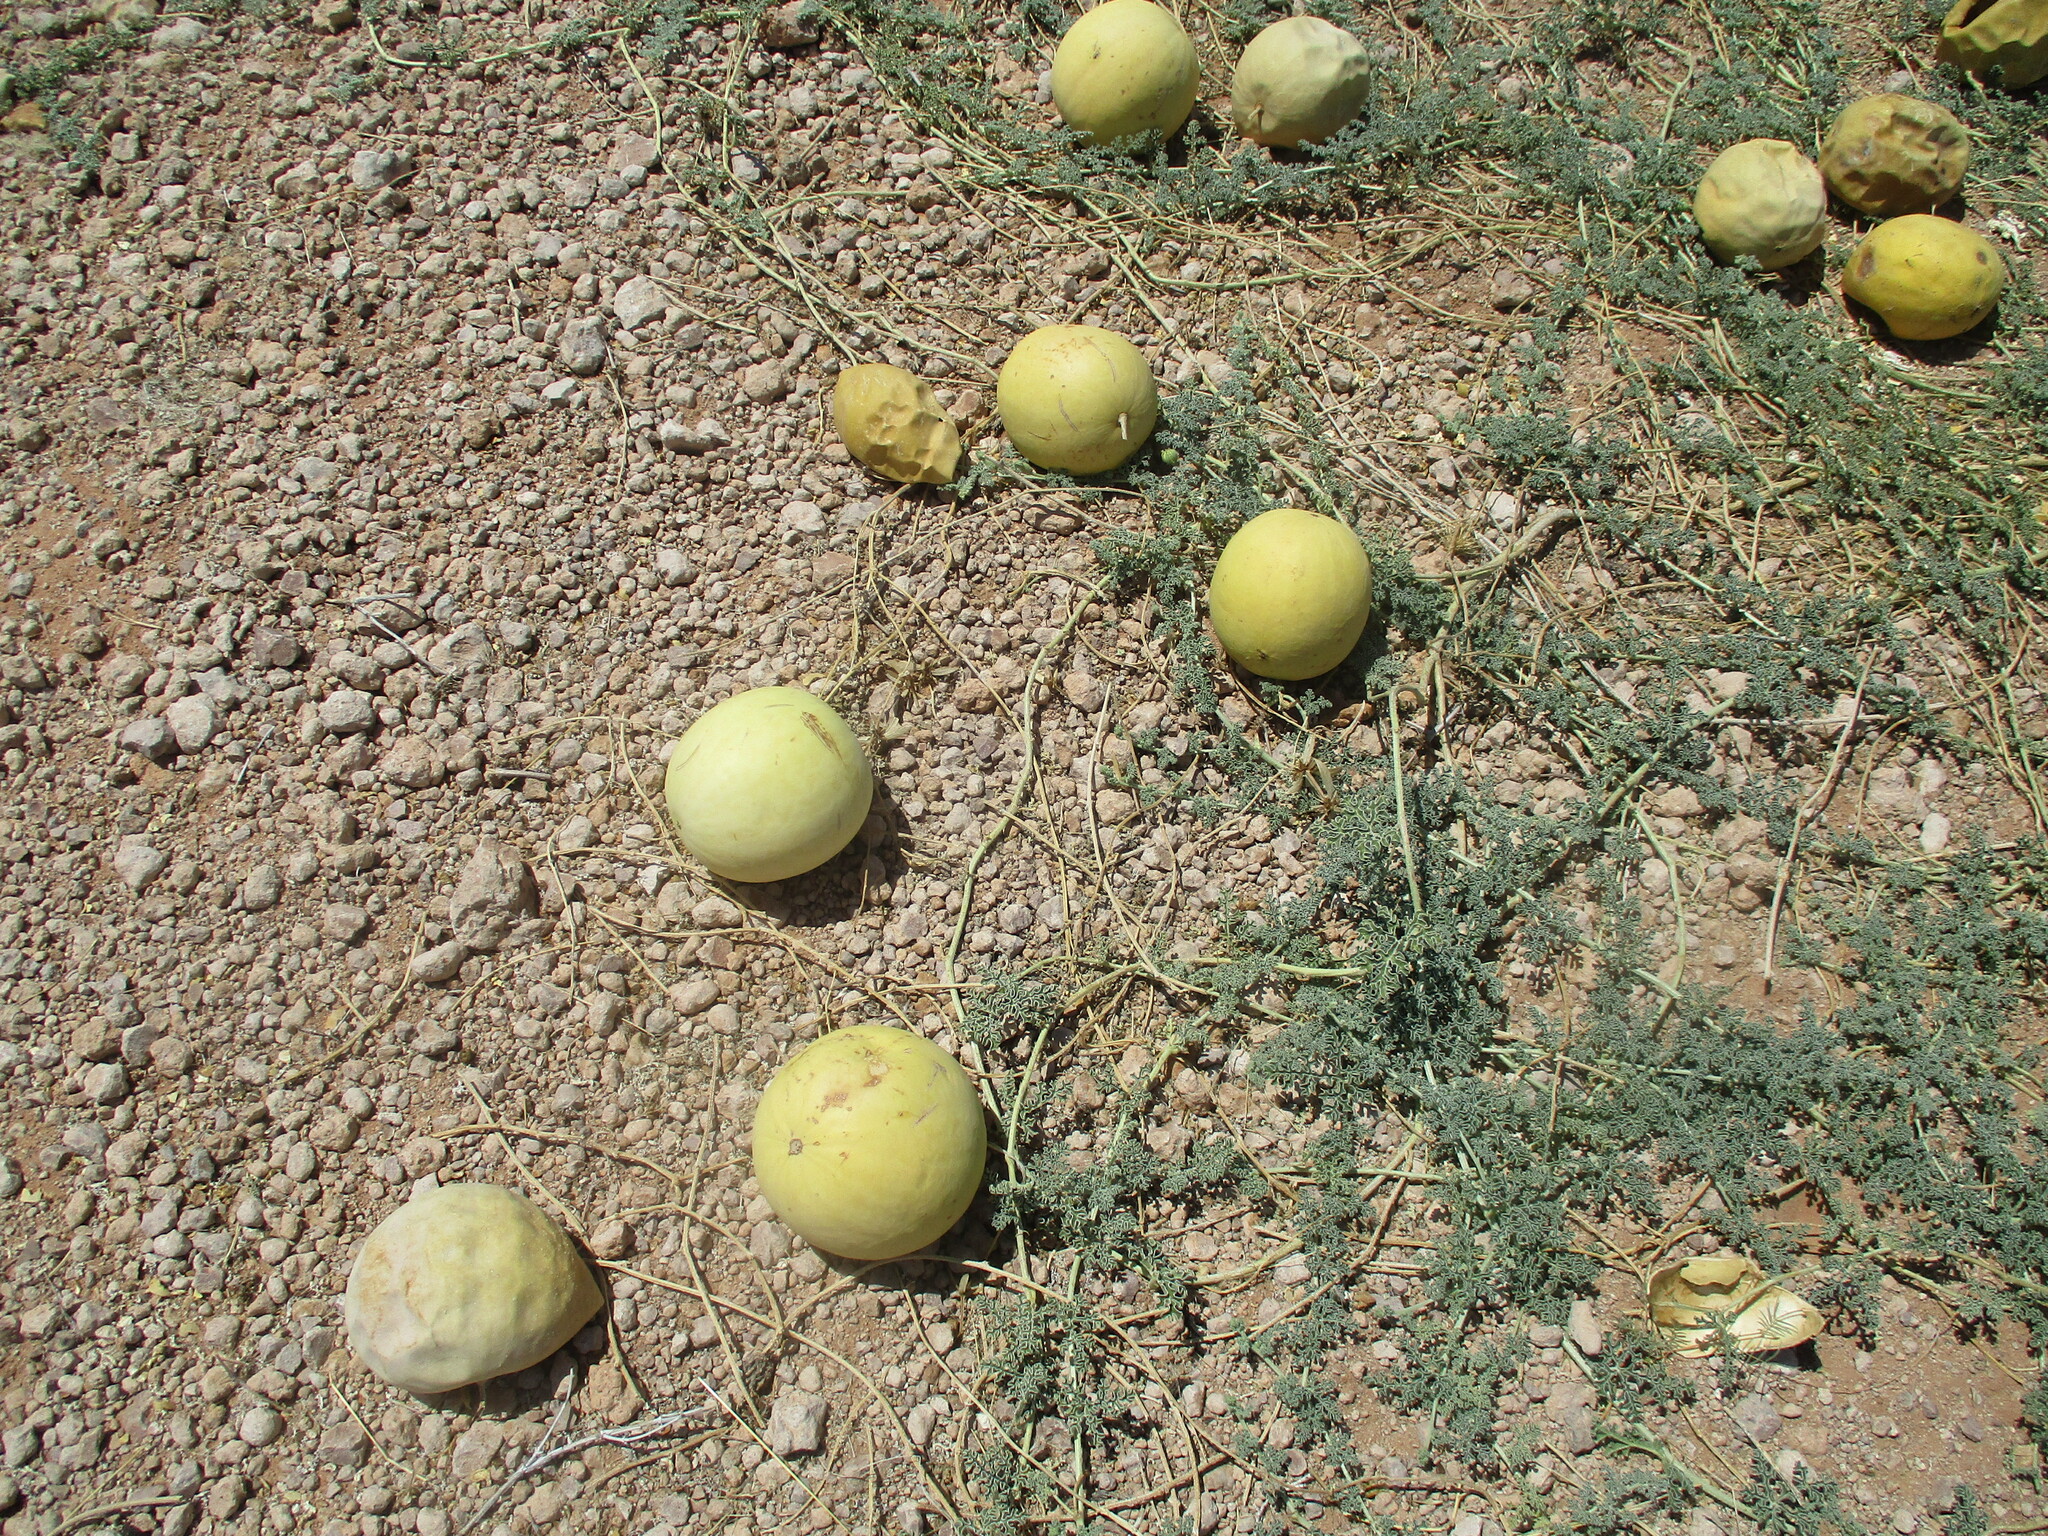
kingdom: Plantae
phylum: Tracheophyta
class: Magnoliopsida
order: Cucurbitales
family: Cucurbitaceae
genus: Citrullus
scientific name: Citrullus ecirrhosus
